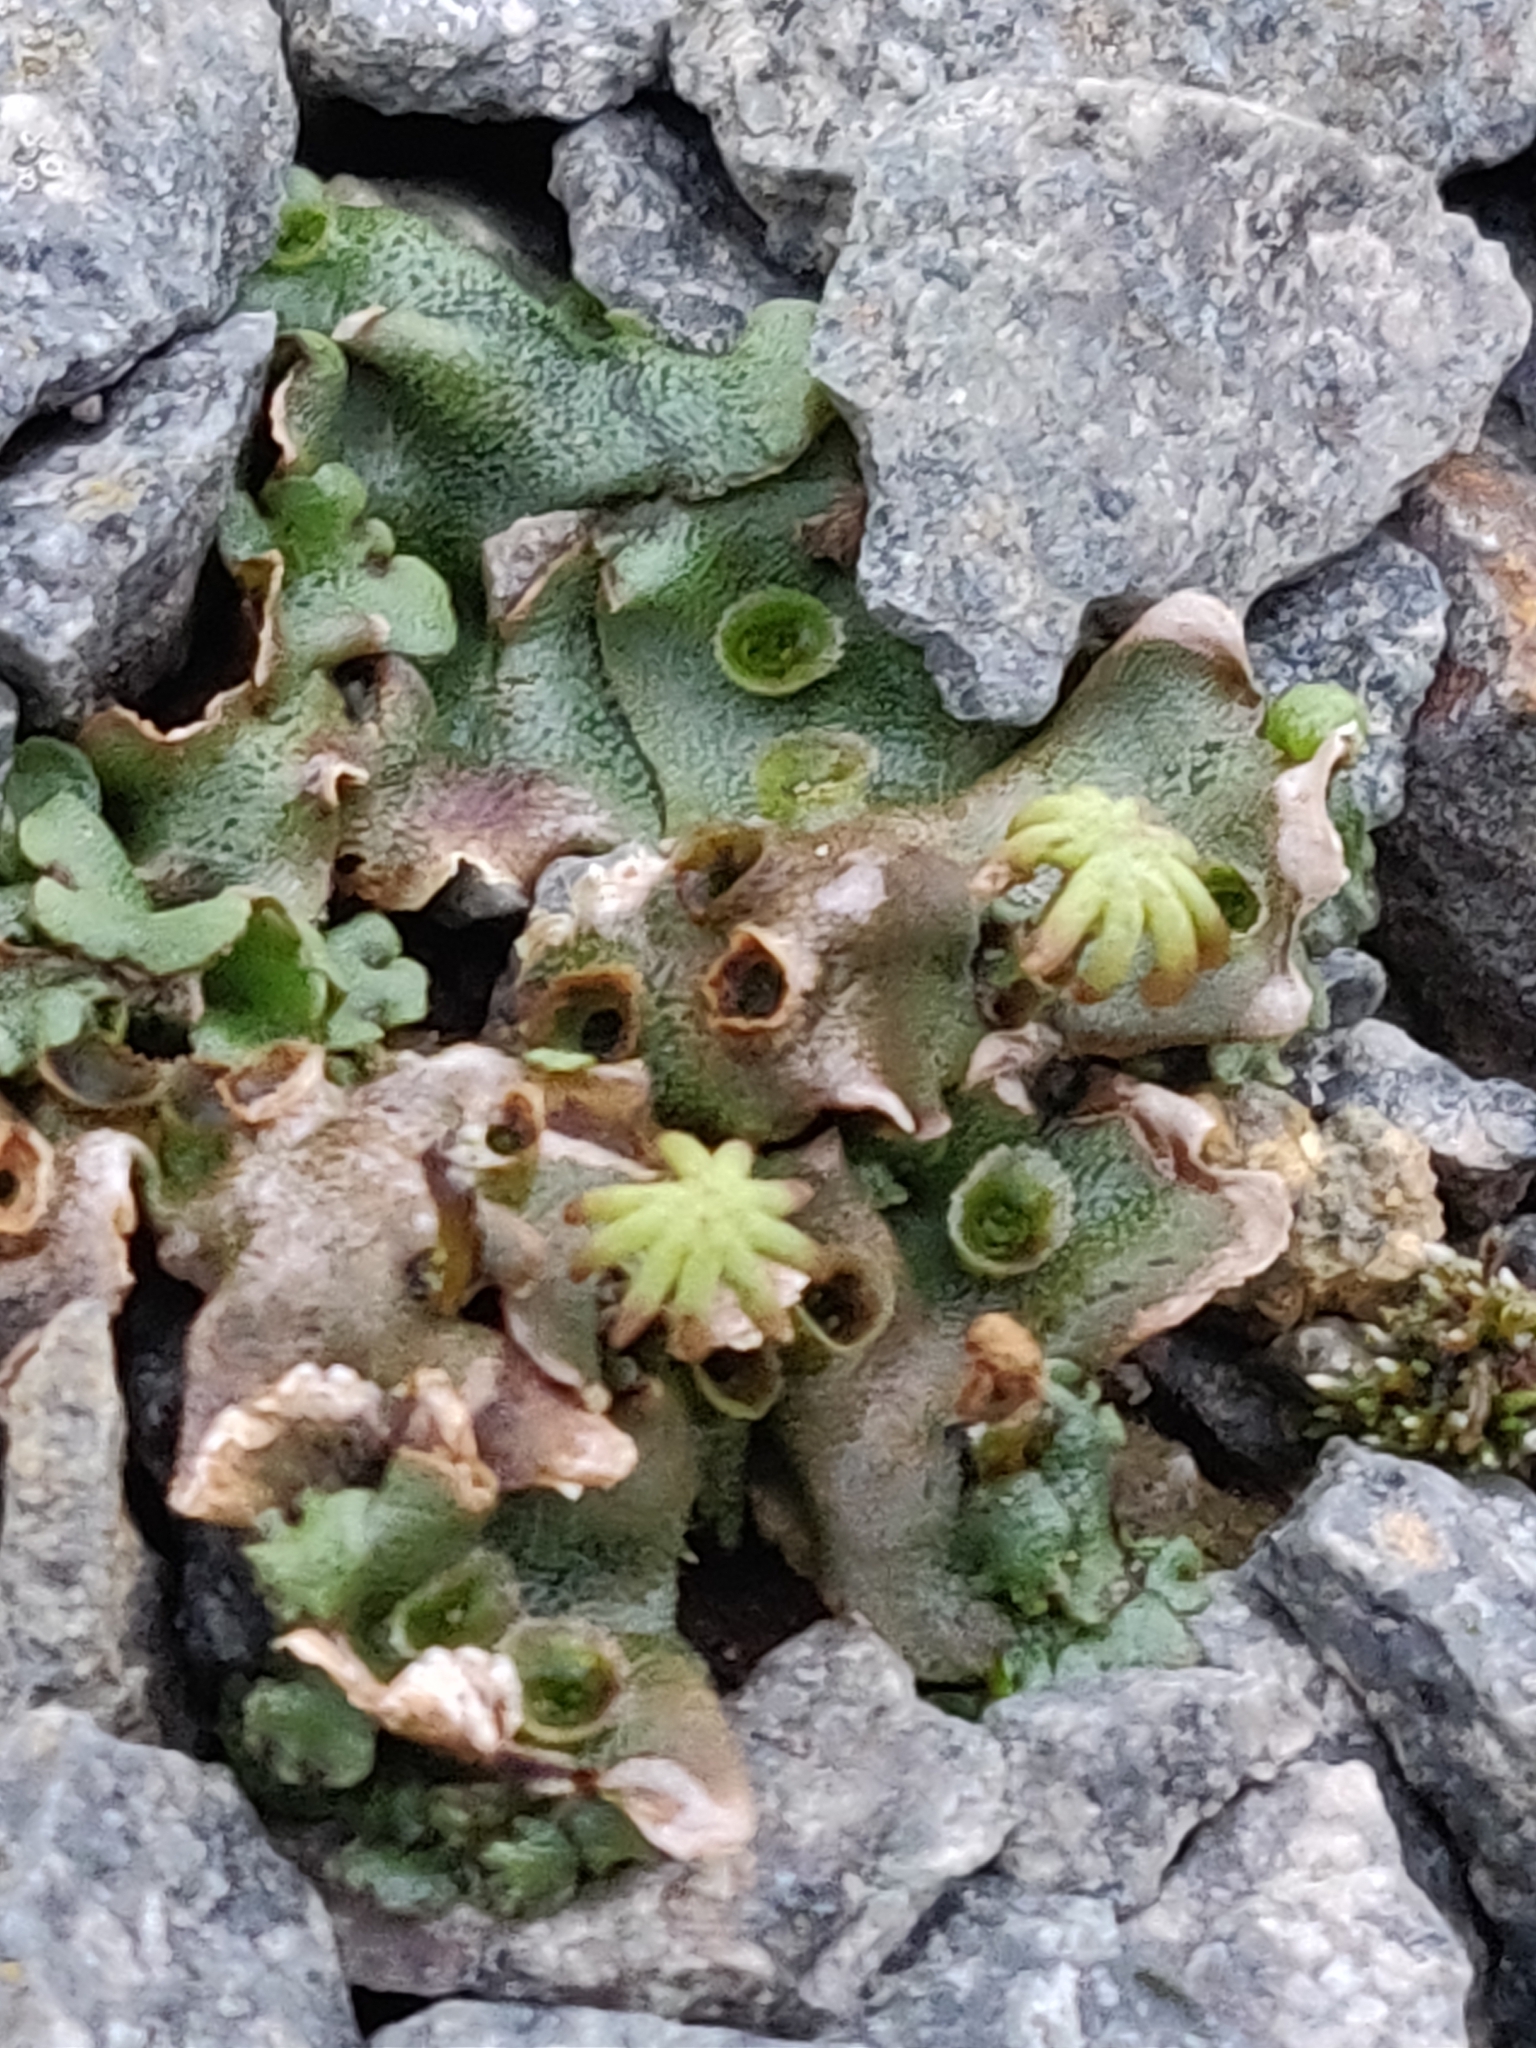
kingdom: Plantae
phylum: Marchantiophyta
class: Marchantiopsida
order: Marchantiales
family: Marchantiaceae
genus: Marchantia
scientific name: Marchantia polymorpha
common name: Common liverwort
